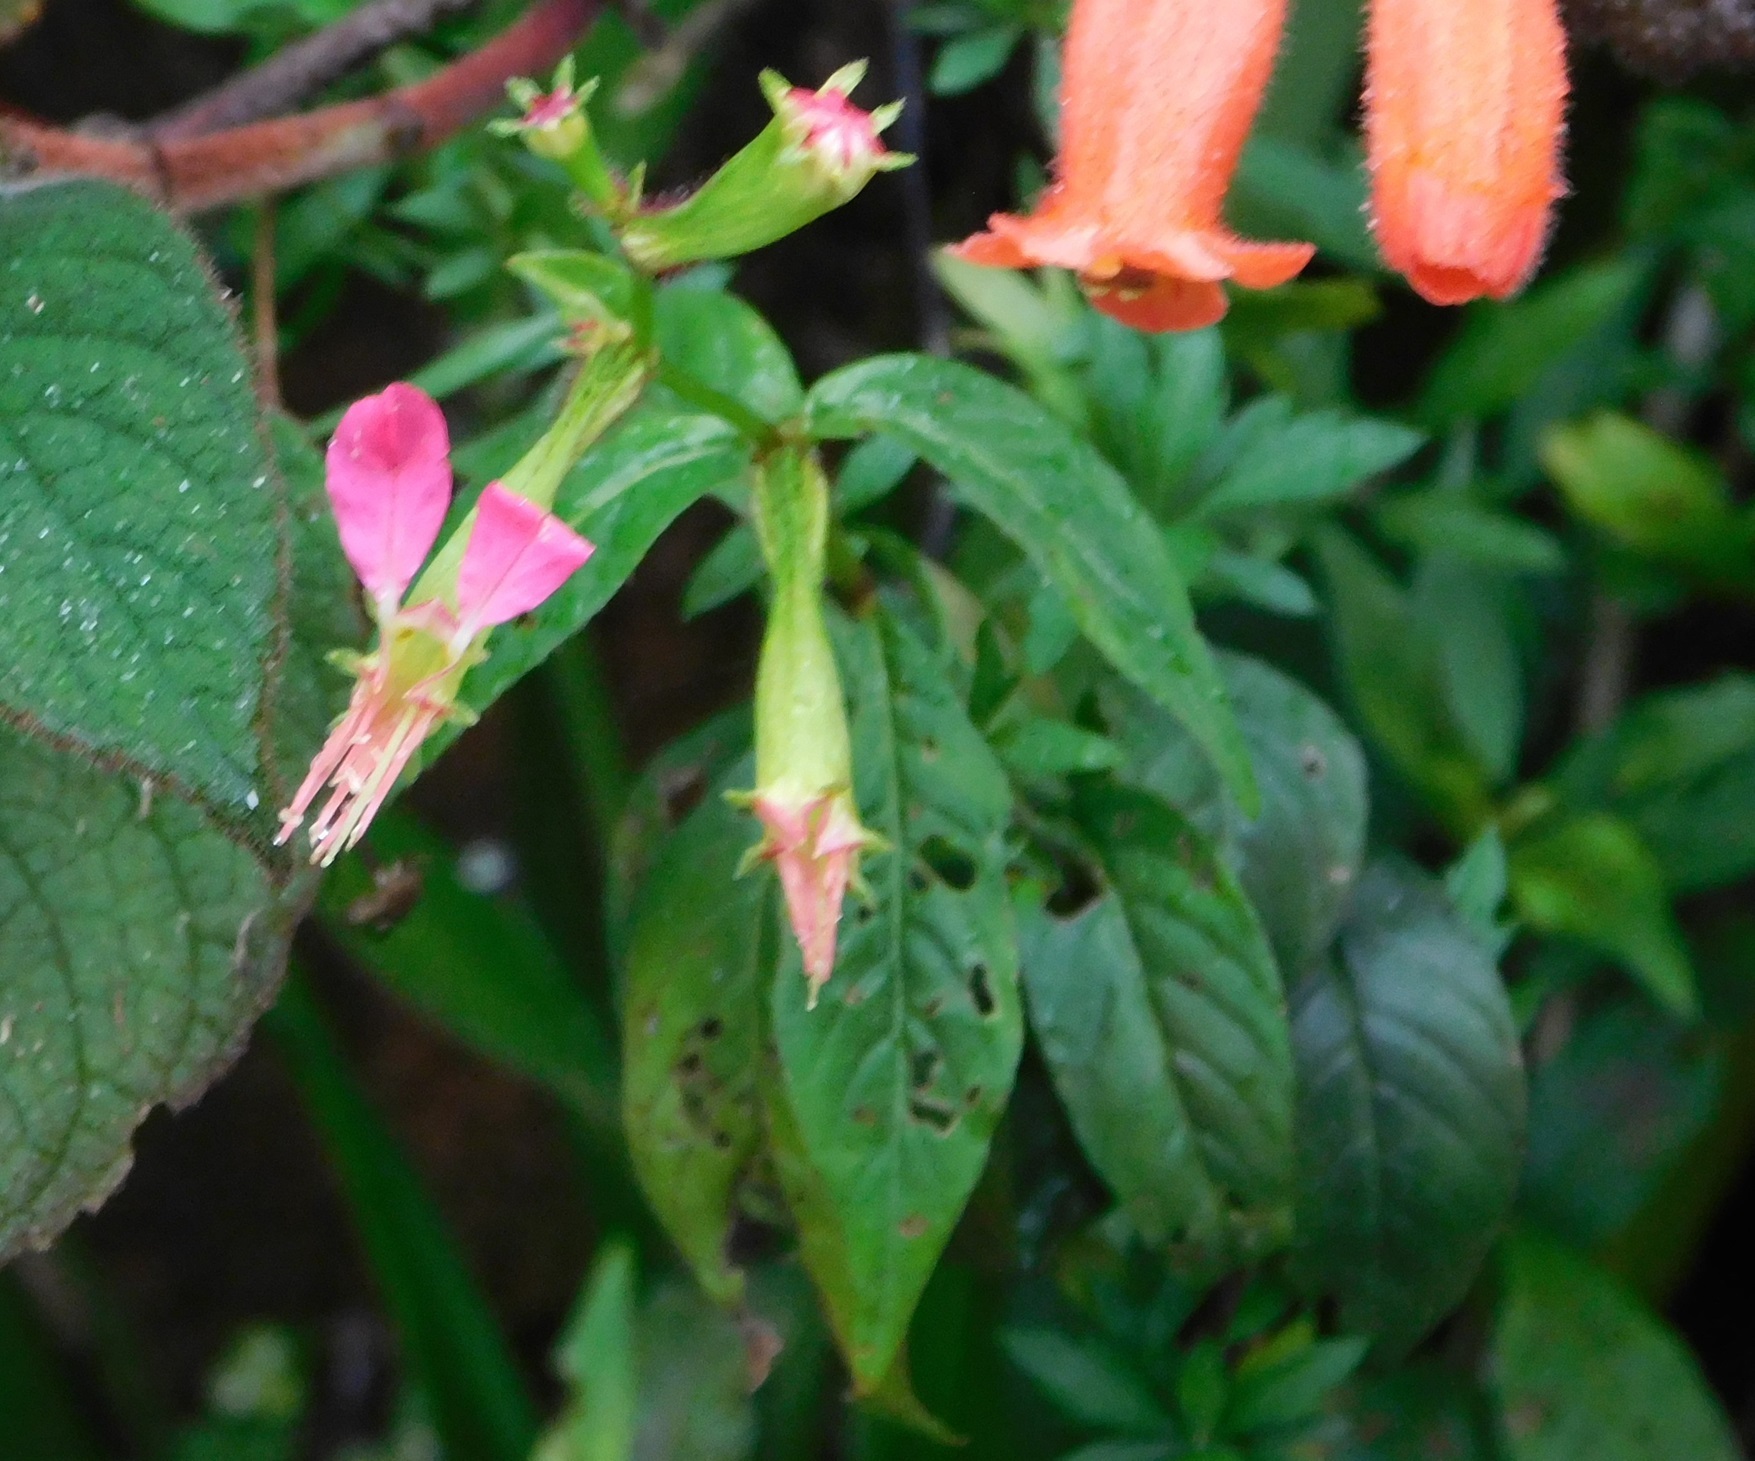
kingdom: Plantae
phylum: Tracheophyta
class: Magnoliopsida
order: Myrtales
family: Lythraceae
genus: Cuphea
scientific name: Cuphea axilliflora
